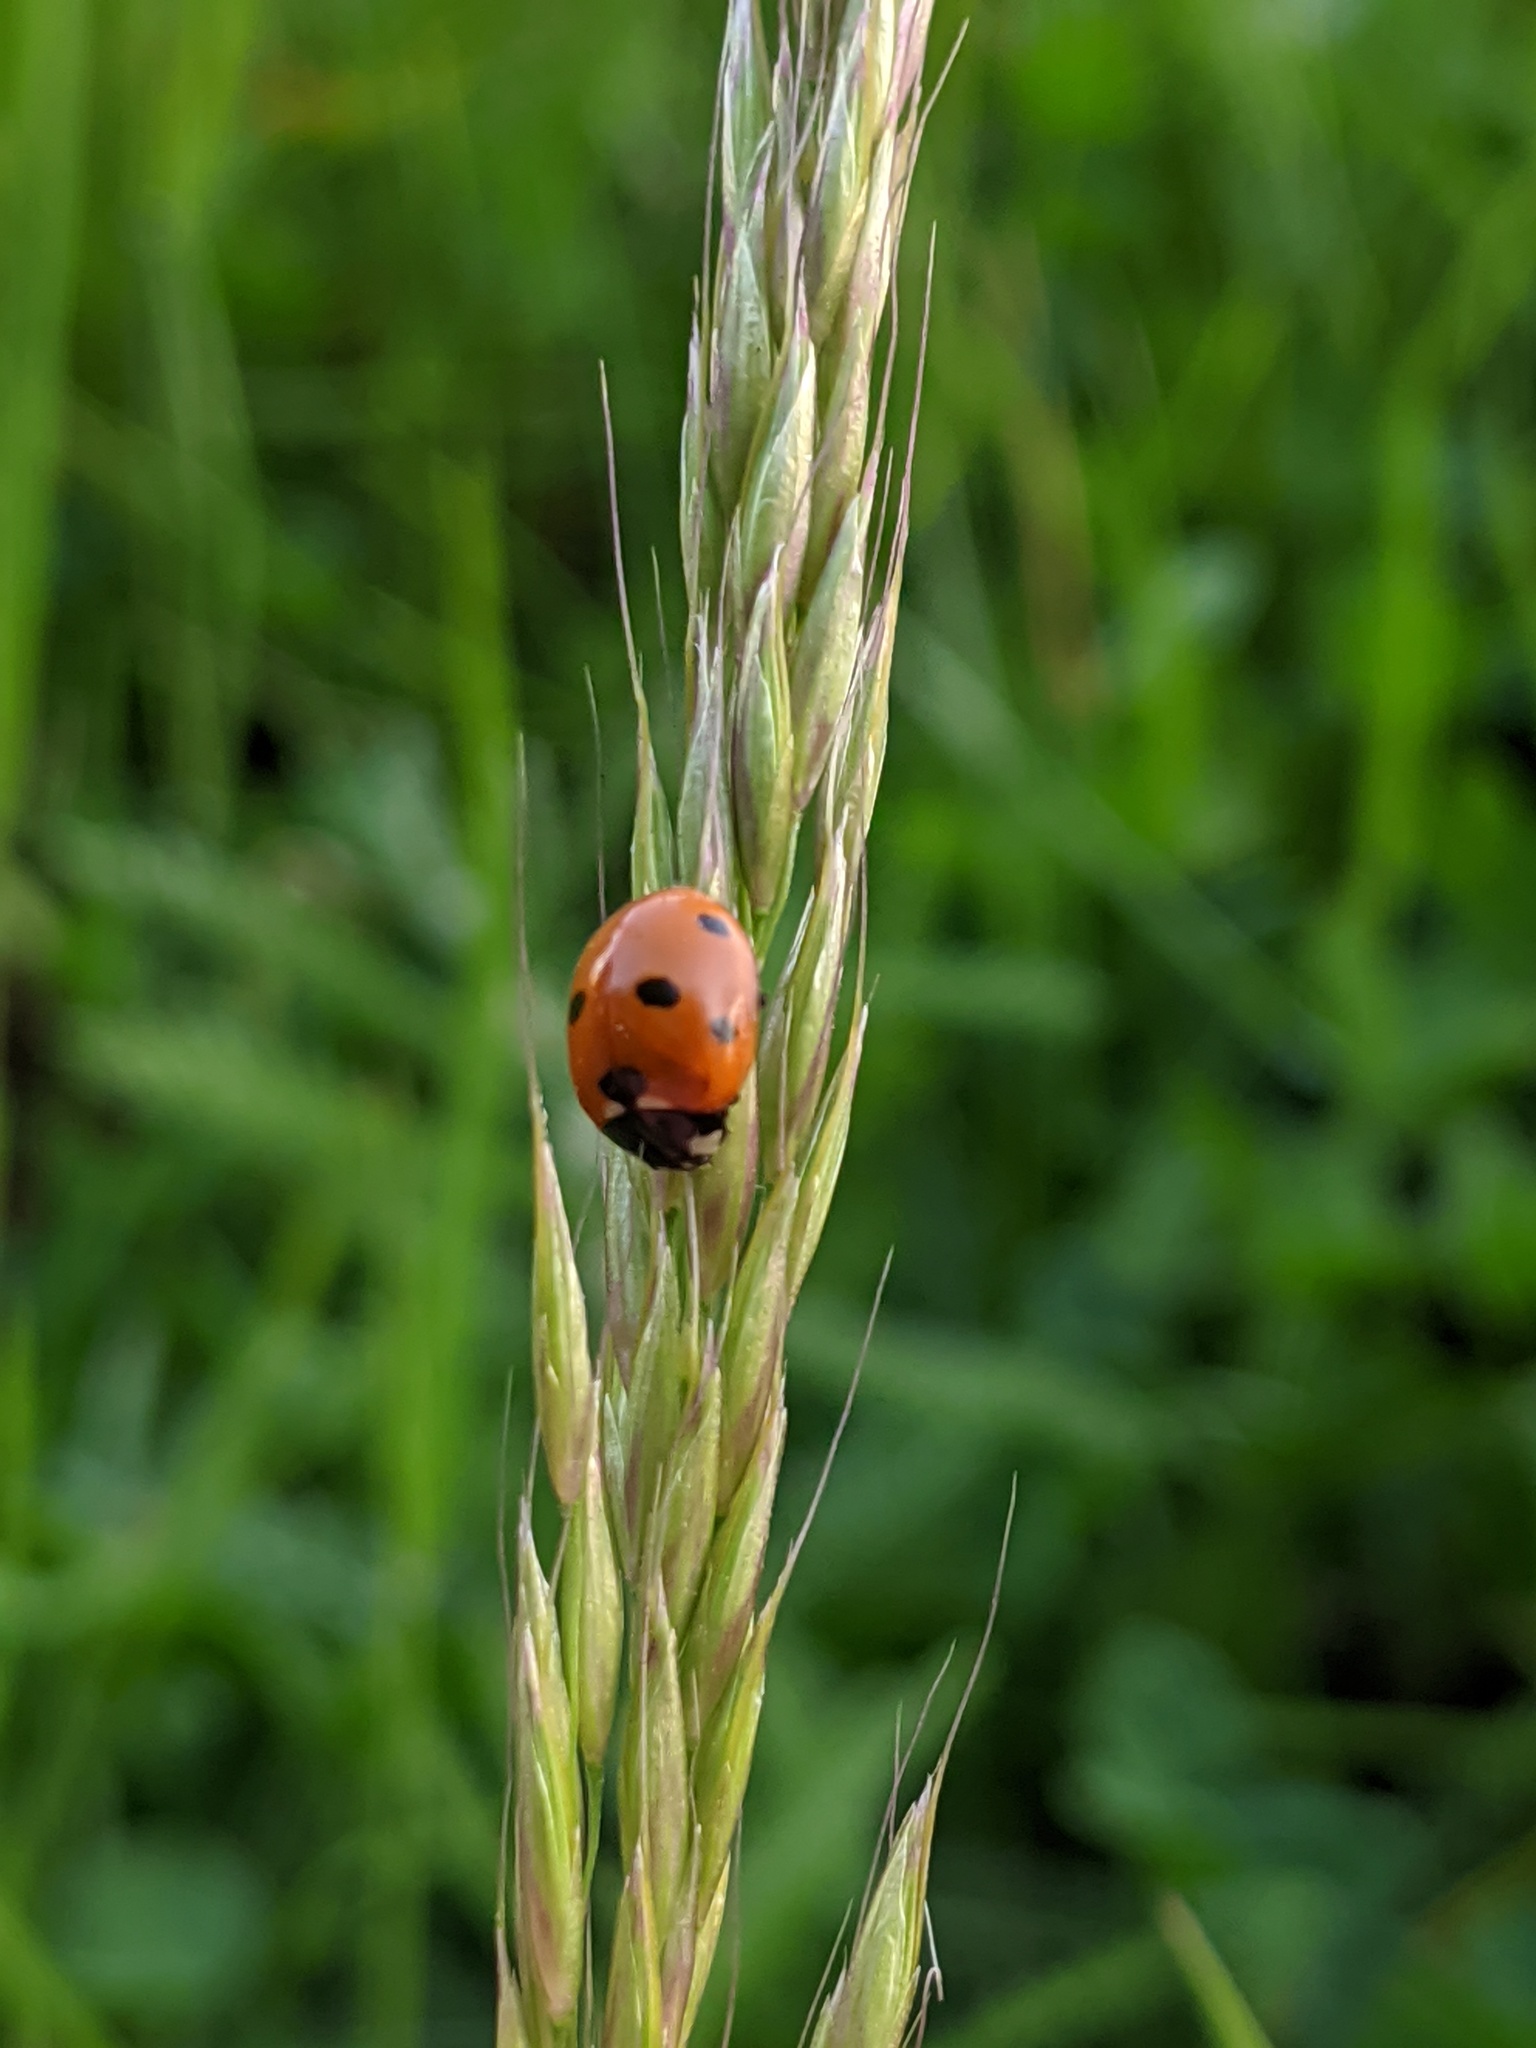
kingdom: Animalia
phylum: Arthropoda
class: Insecta
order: Coleoptera
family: Coccinellidae
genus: Coccinella
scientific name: Coccinella septempunctata
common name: Sevenspotted lady beetle
